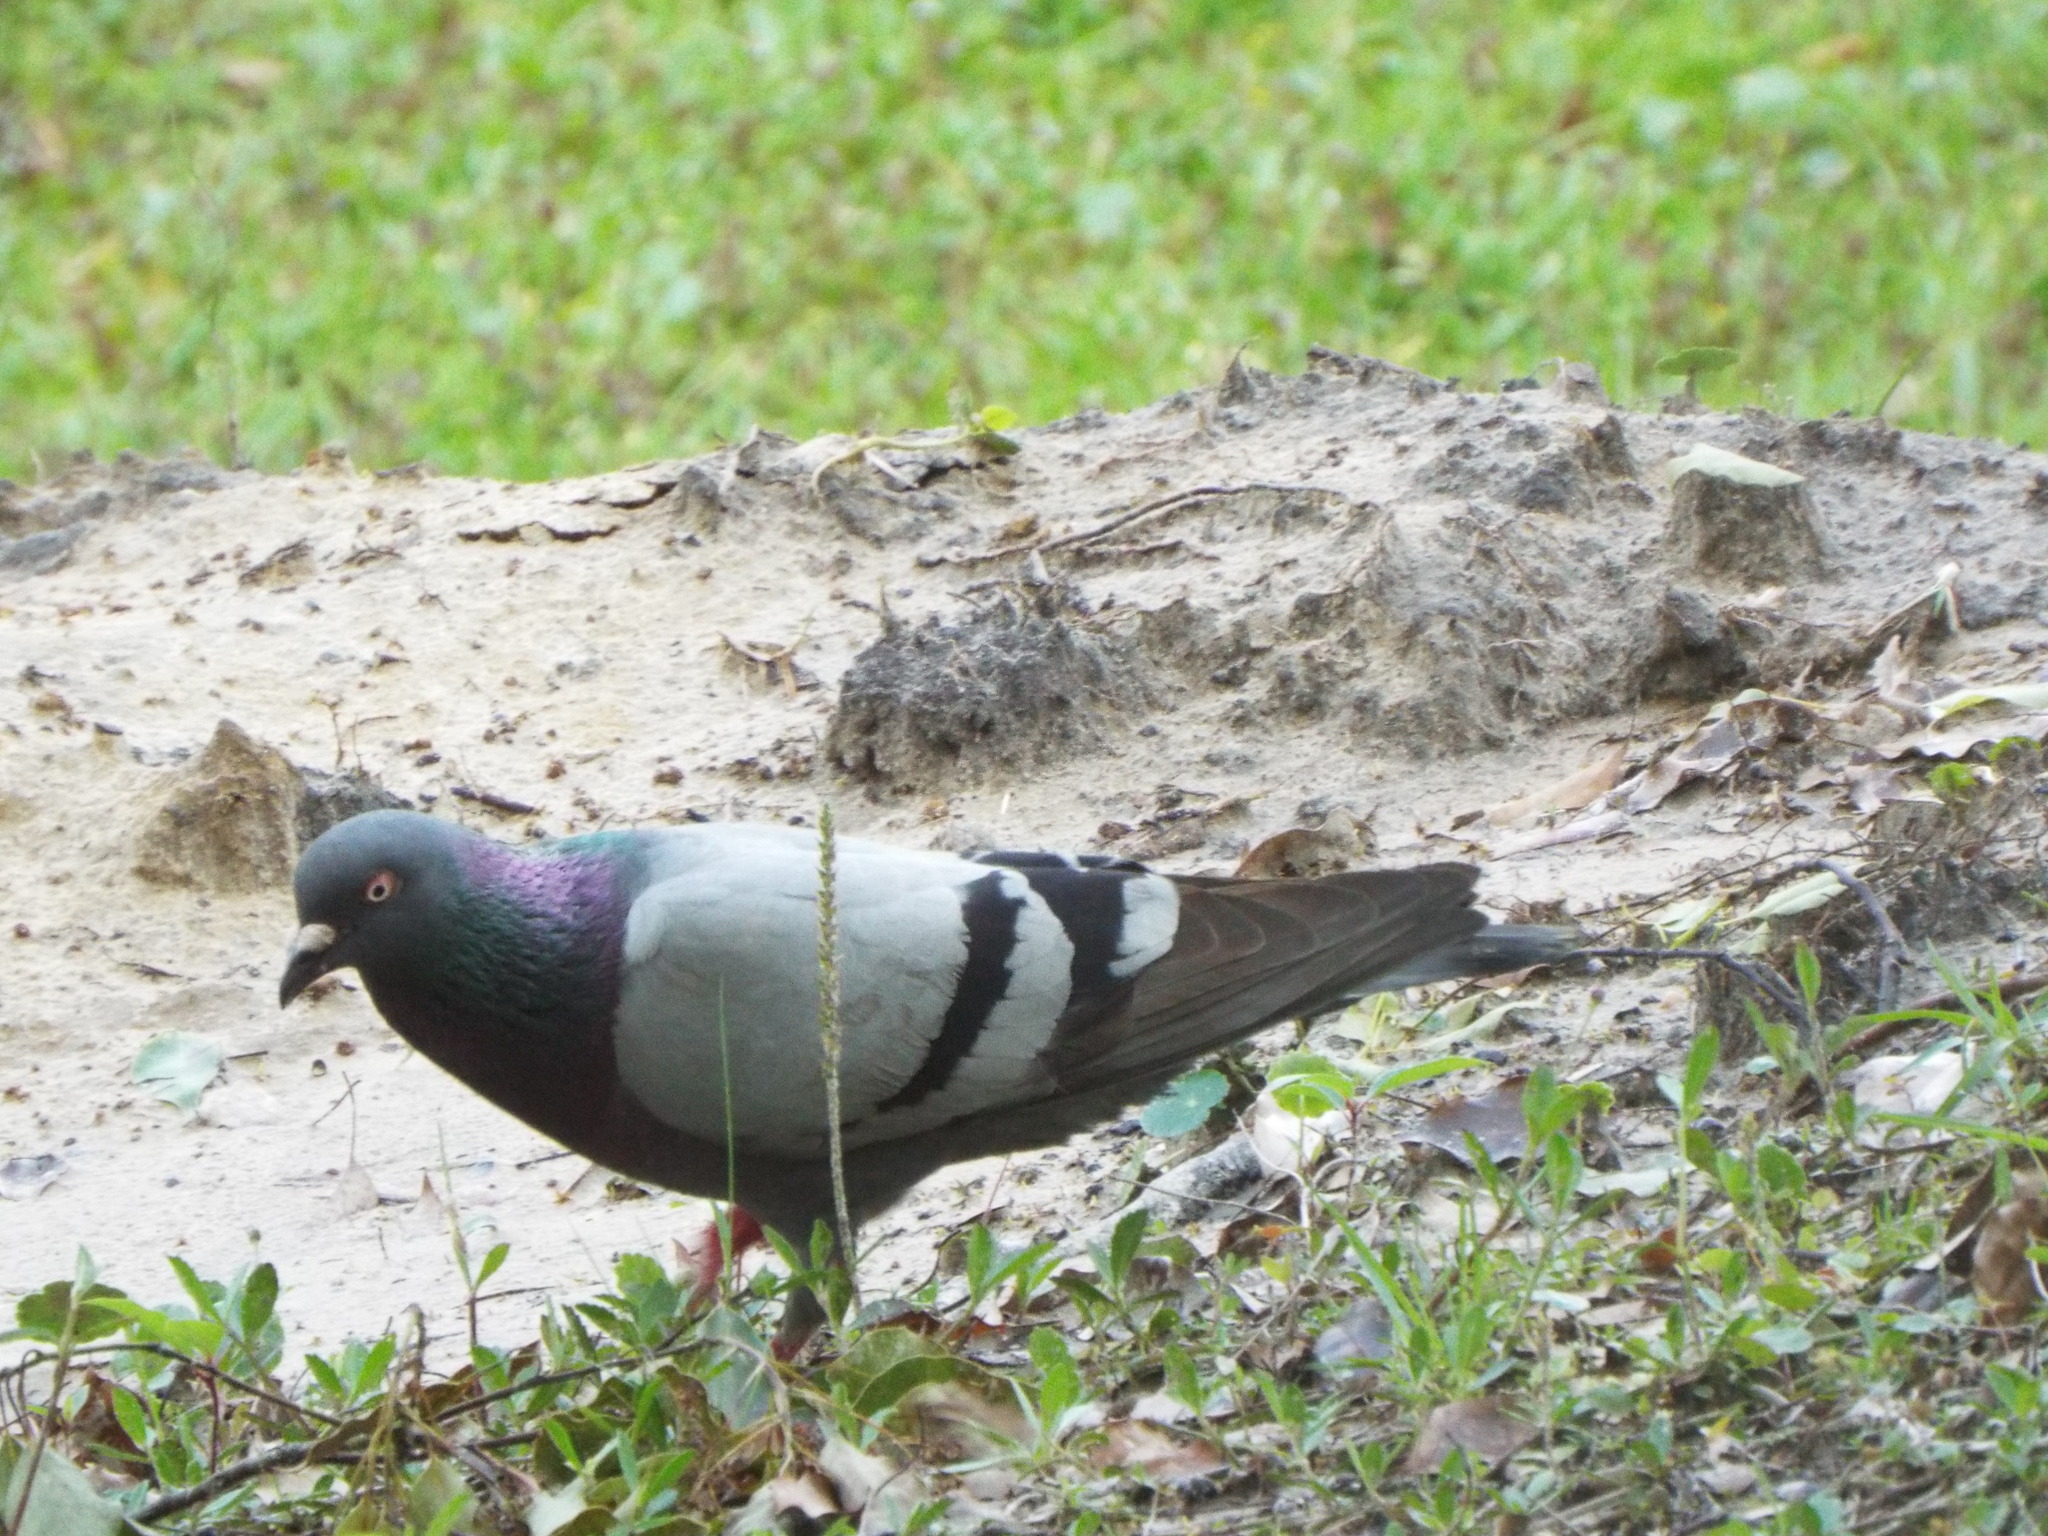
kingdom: Animalia
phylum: Chordata
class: Aves
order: Columbiformes
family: Columbidae
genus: Columba
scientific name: Columba livia
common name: Rock pigeon
